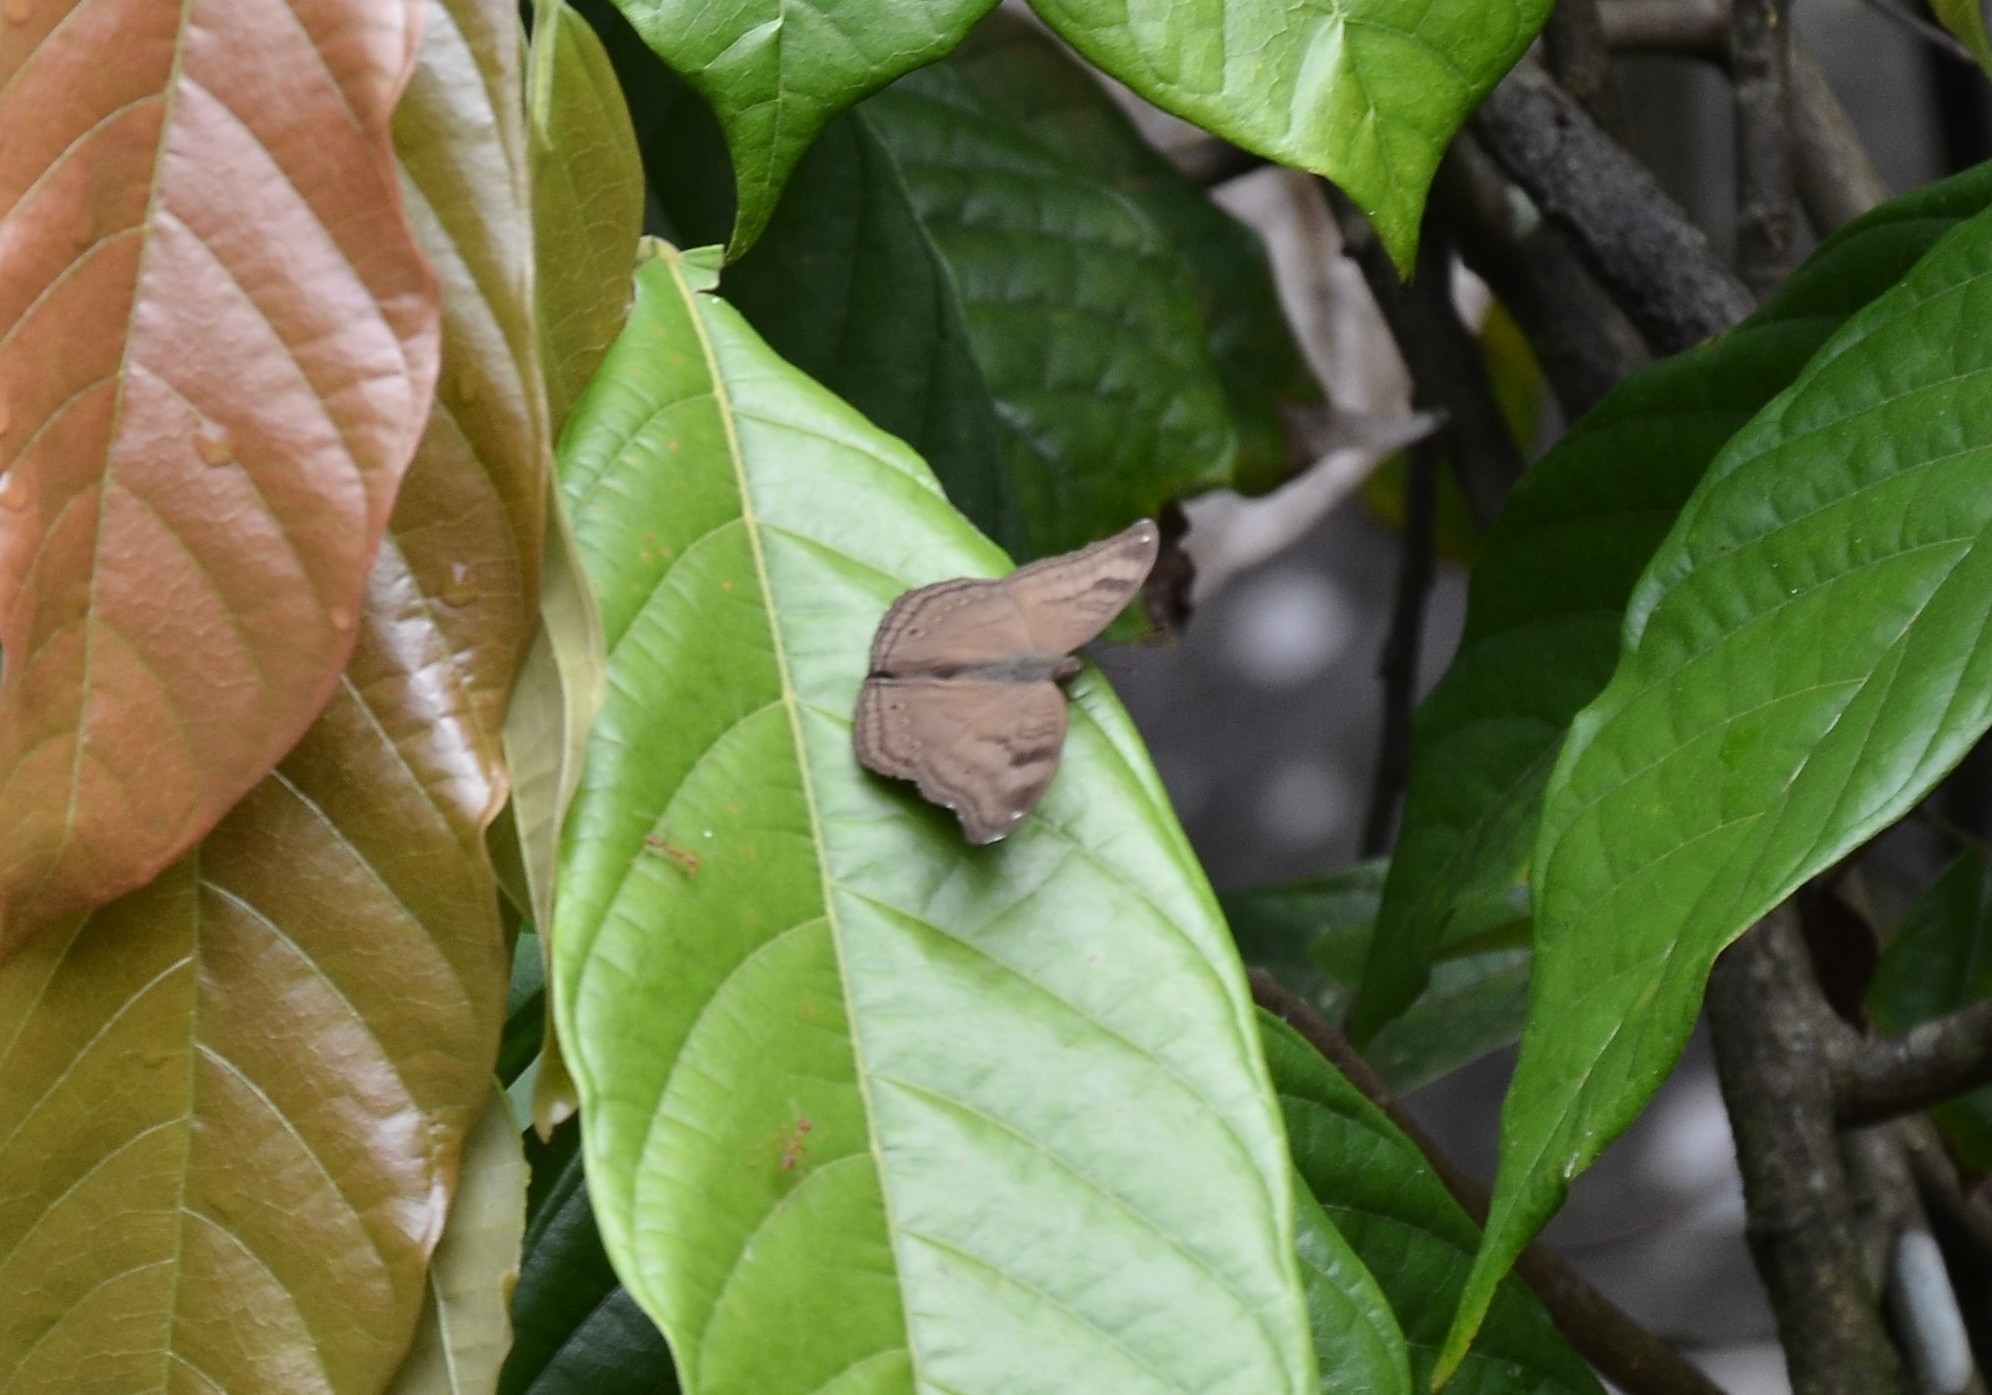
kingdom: Animalia
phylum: Arthropoda
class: Insecta
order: Lepidoptera
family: Nymphalidae
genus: Junonia
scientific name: Junonia iphita
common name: Chocolate pansy
